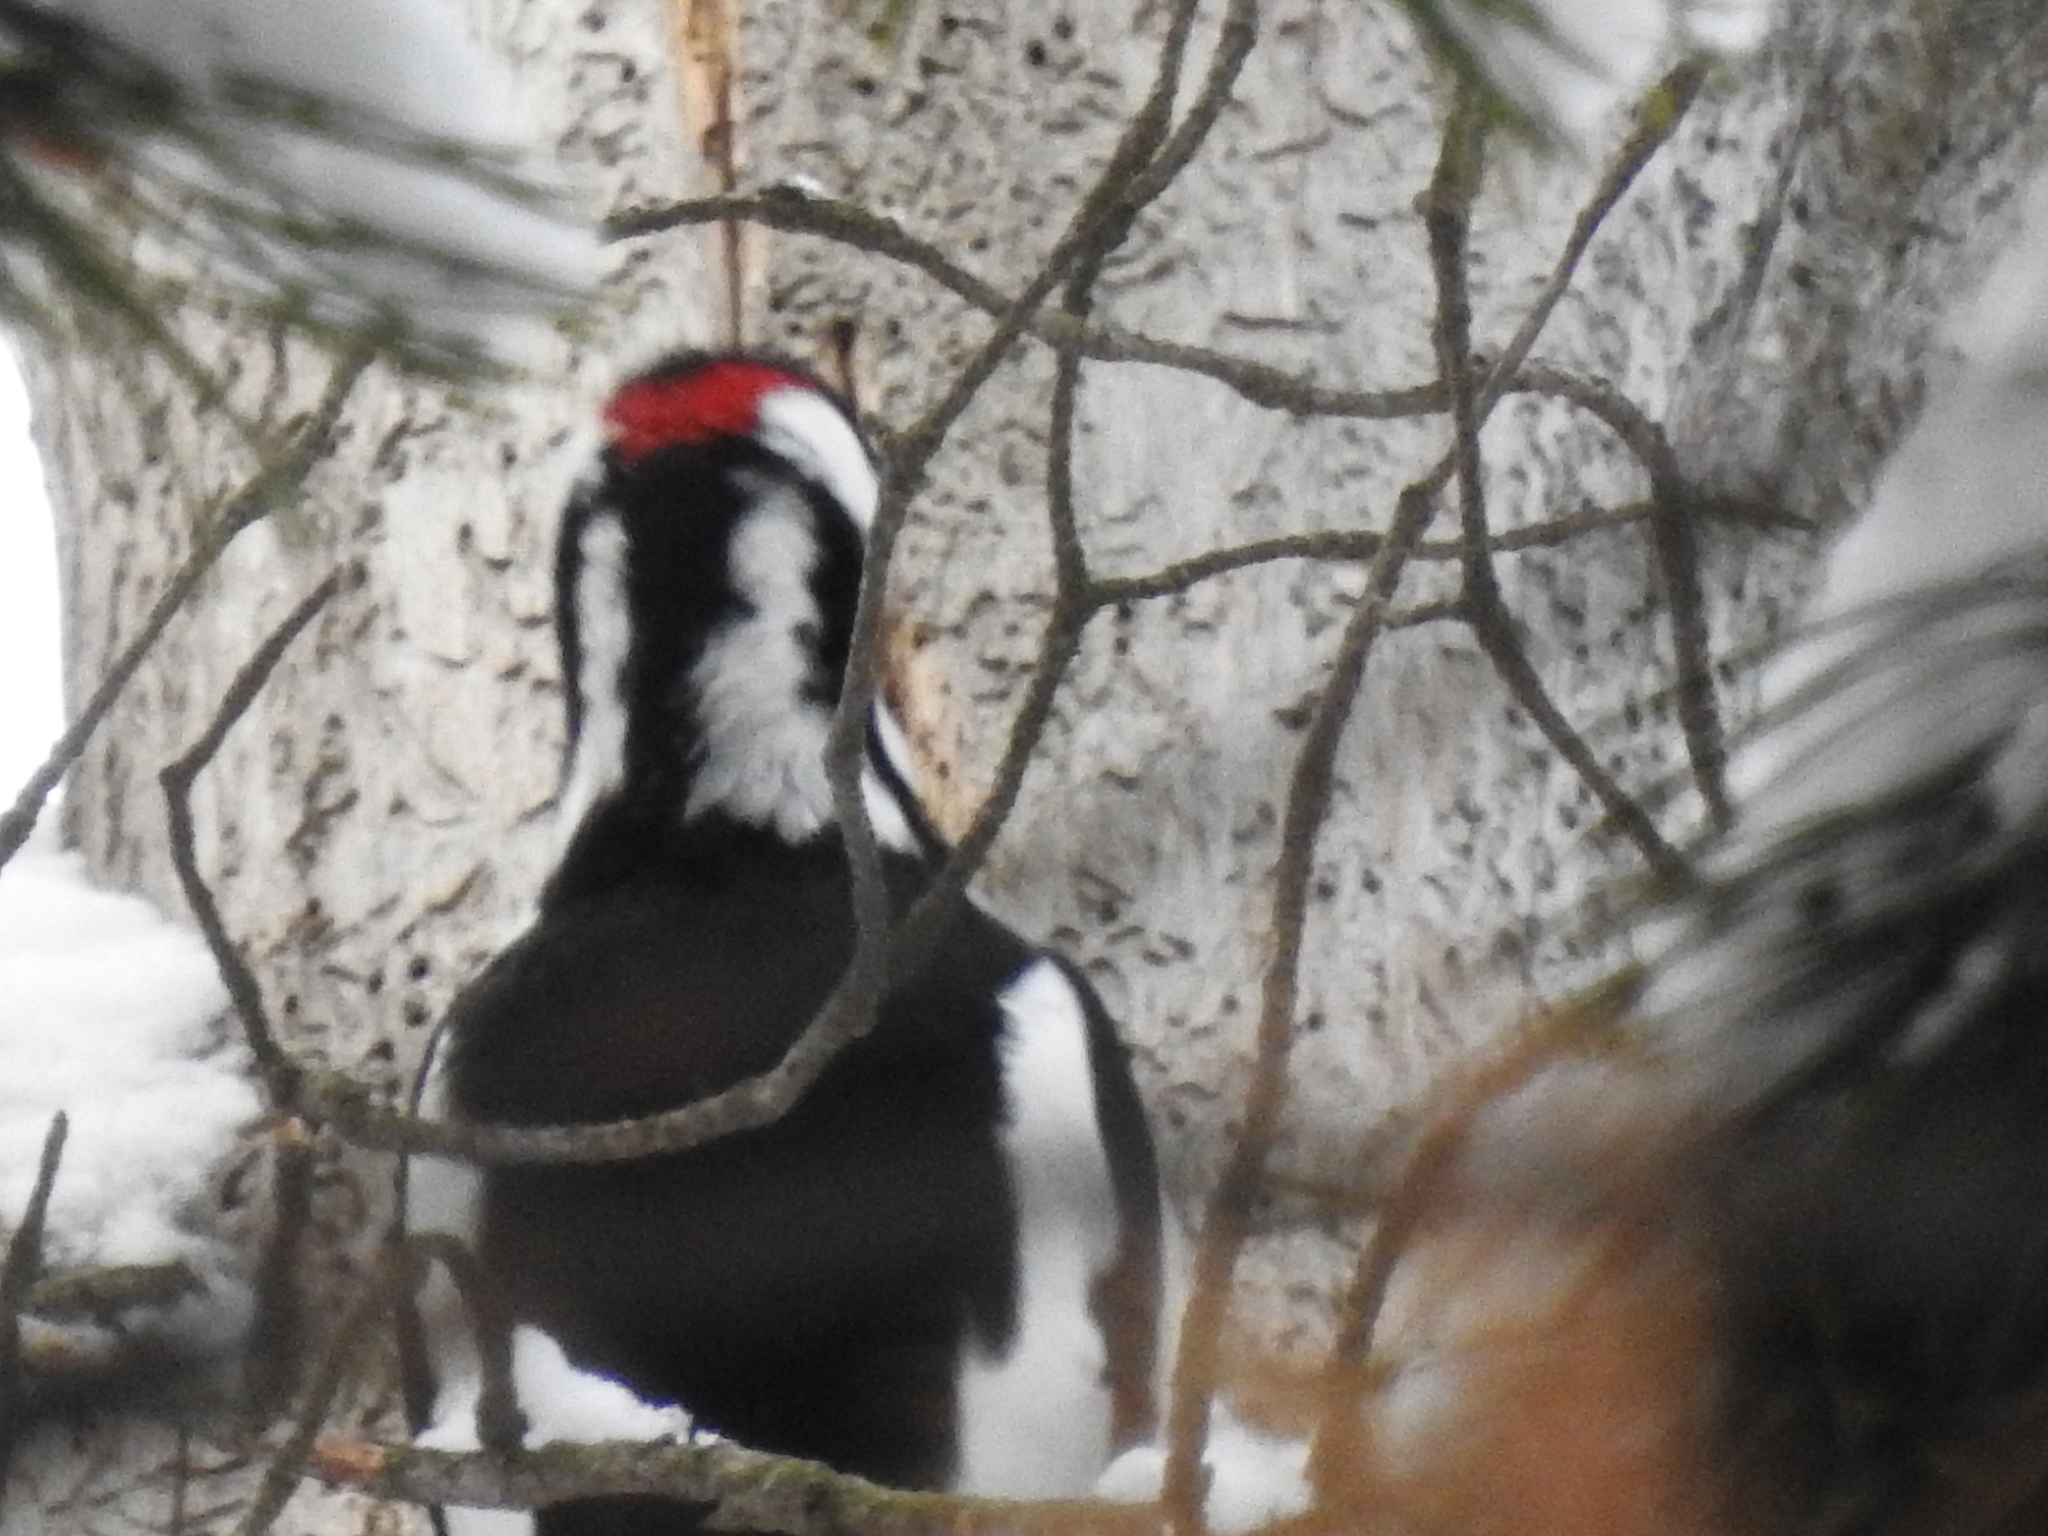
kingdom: Animalia
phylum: Chordata
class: Aves
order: Piciformes
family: Picidae
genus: Dendrocopos
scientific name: Dendrocopos major
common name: Great spotted woodpecker
